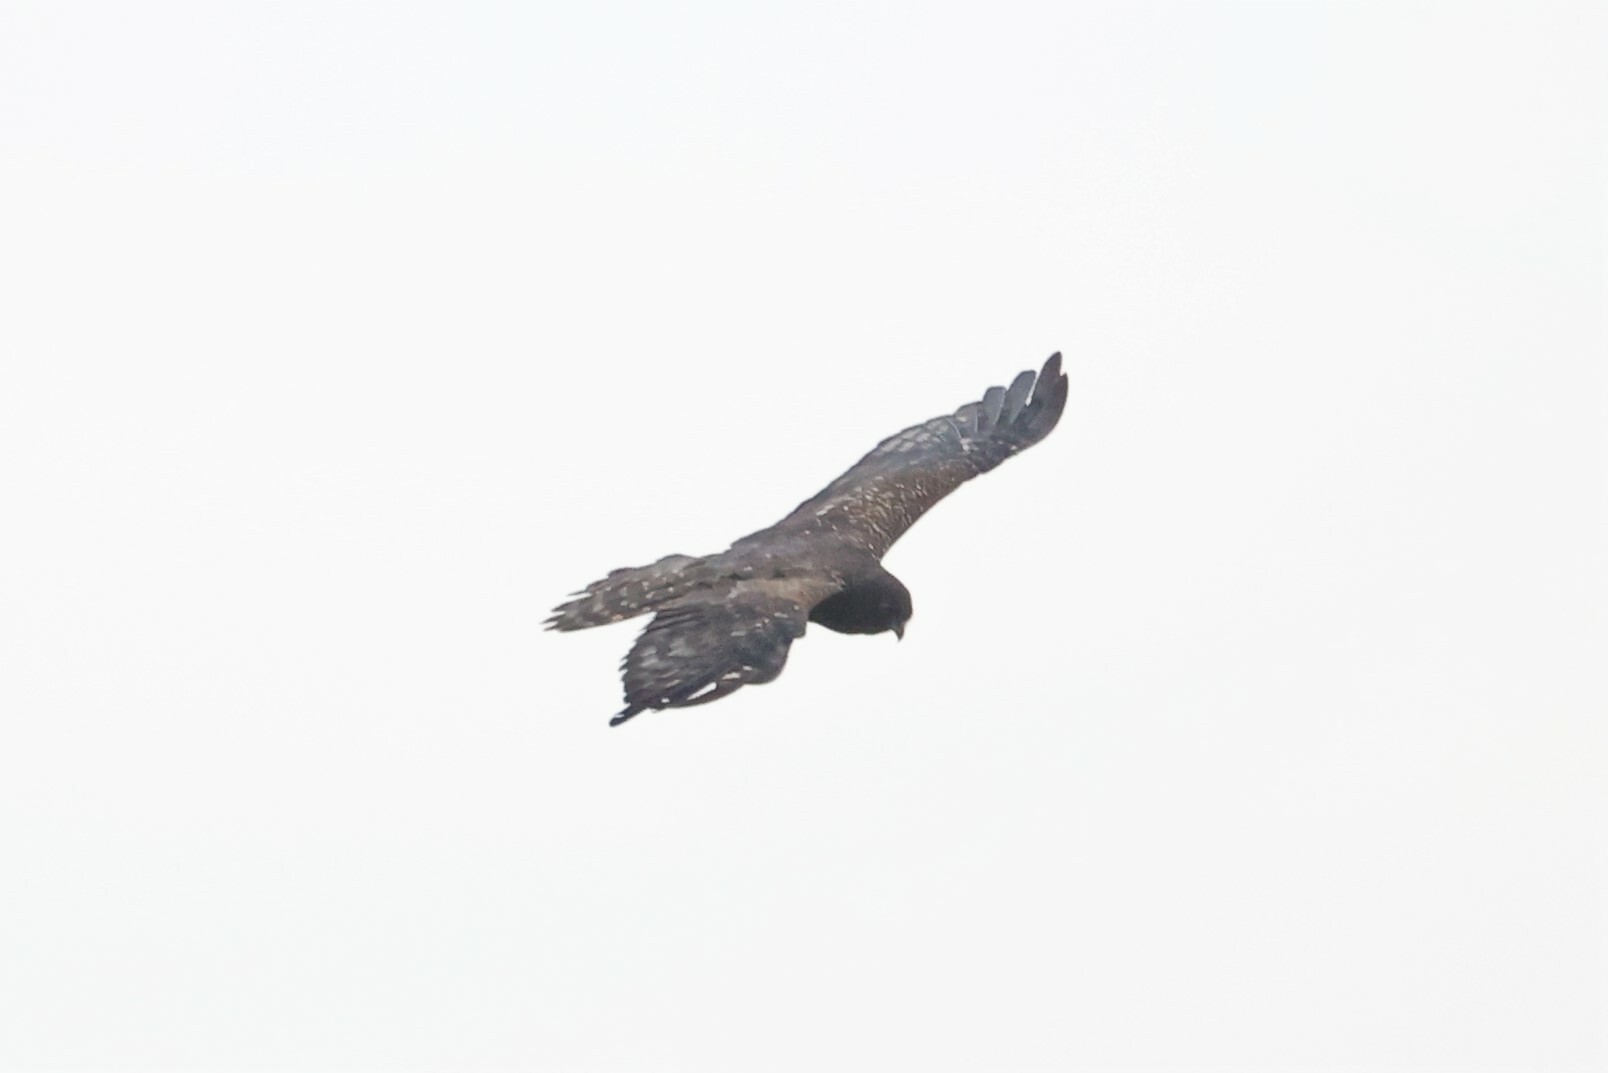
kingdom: Animalia
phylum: Chordata
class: Aves
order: Accipitriformes
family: Accipitridae
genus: Circus
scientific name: Circus ranivorus
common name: African marsh-harrier
